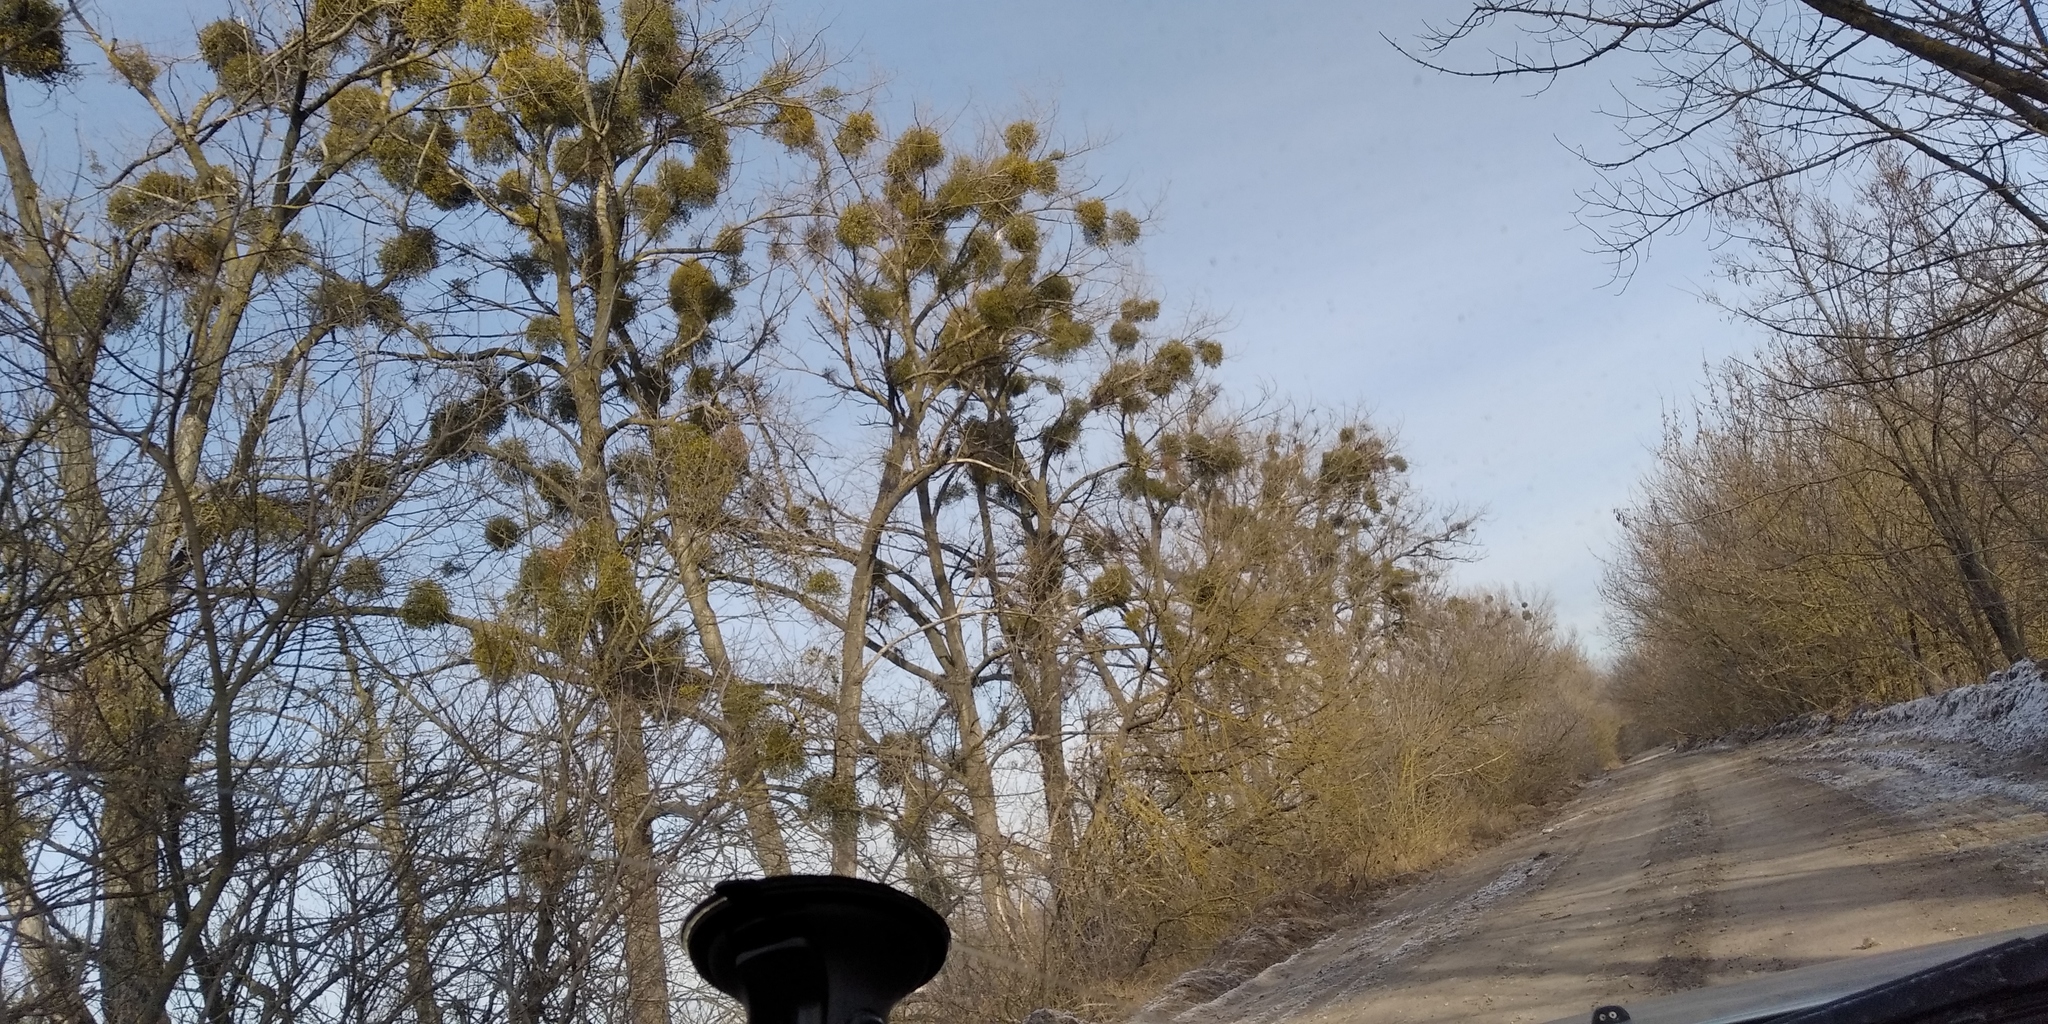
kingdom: Plantae
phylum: Tracheophyta
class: Magnoliopsida
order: Santalales
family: Viscaceae
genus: Viscum
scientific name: Viscum album
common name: Mistletoe
